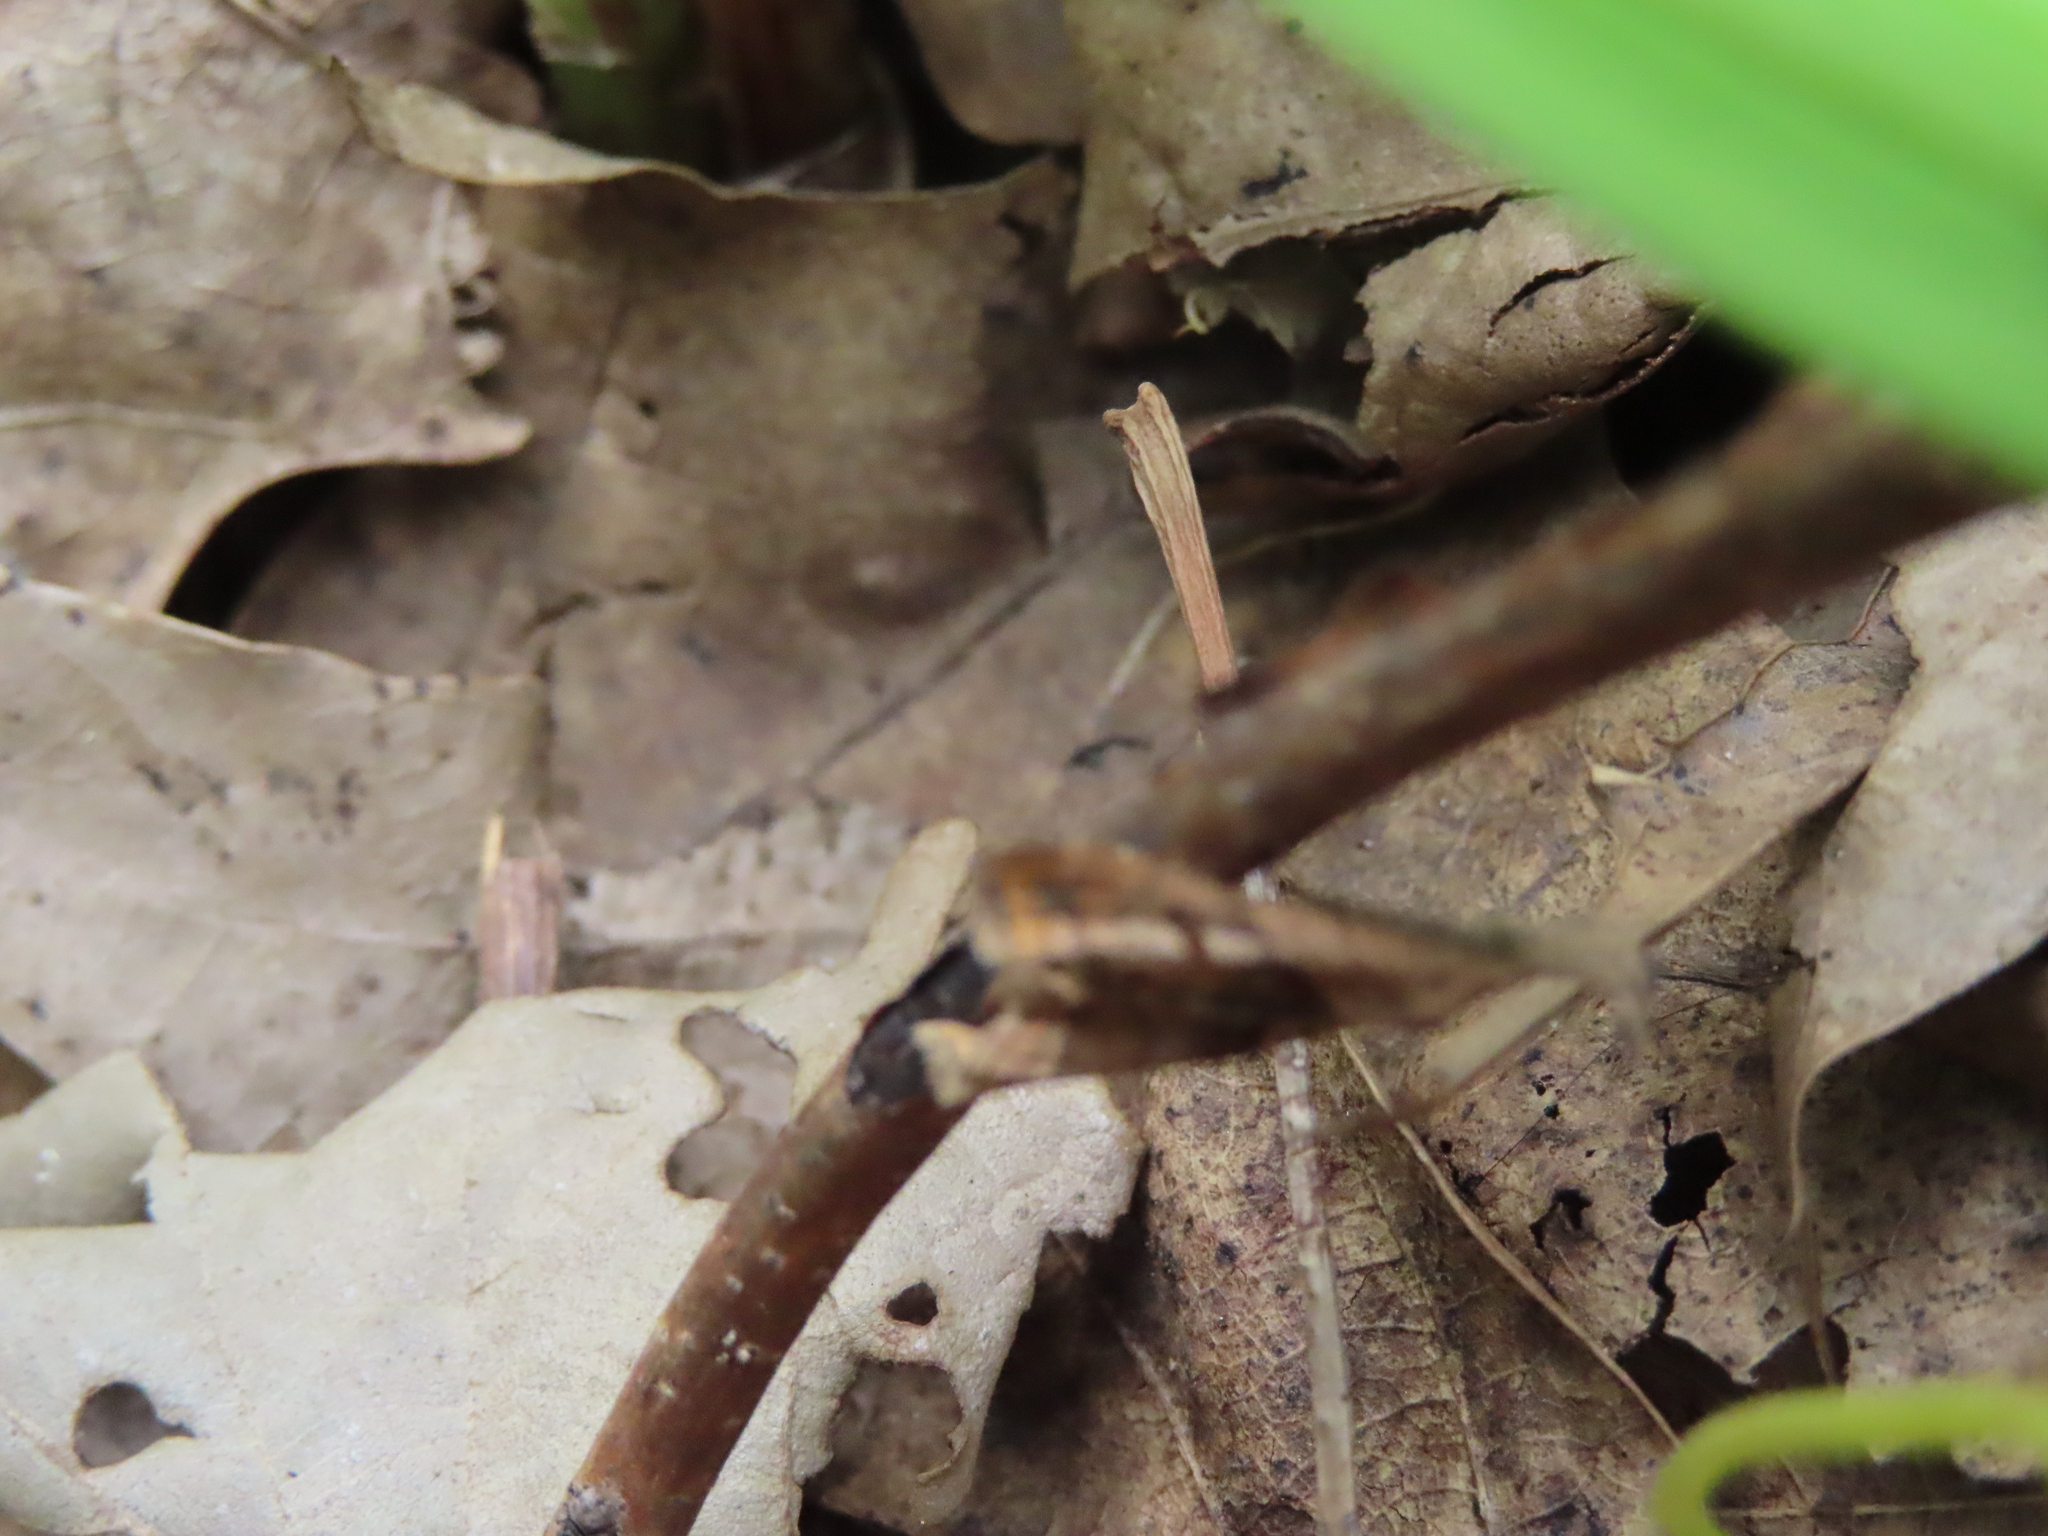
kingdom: Animalia
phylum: Arthropoda
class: Insecta
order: Lepidoptera
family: Erebidae
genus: Palthis
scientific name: Palthis angulalis
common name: Dark-spotted palthis moth
